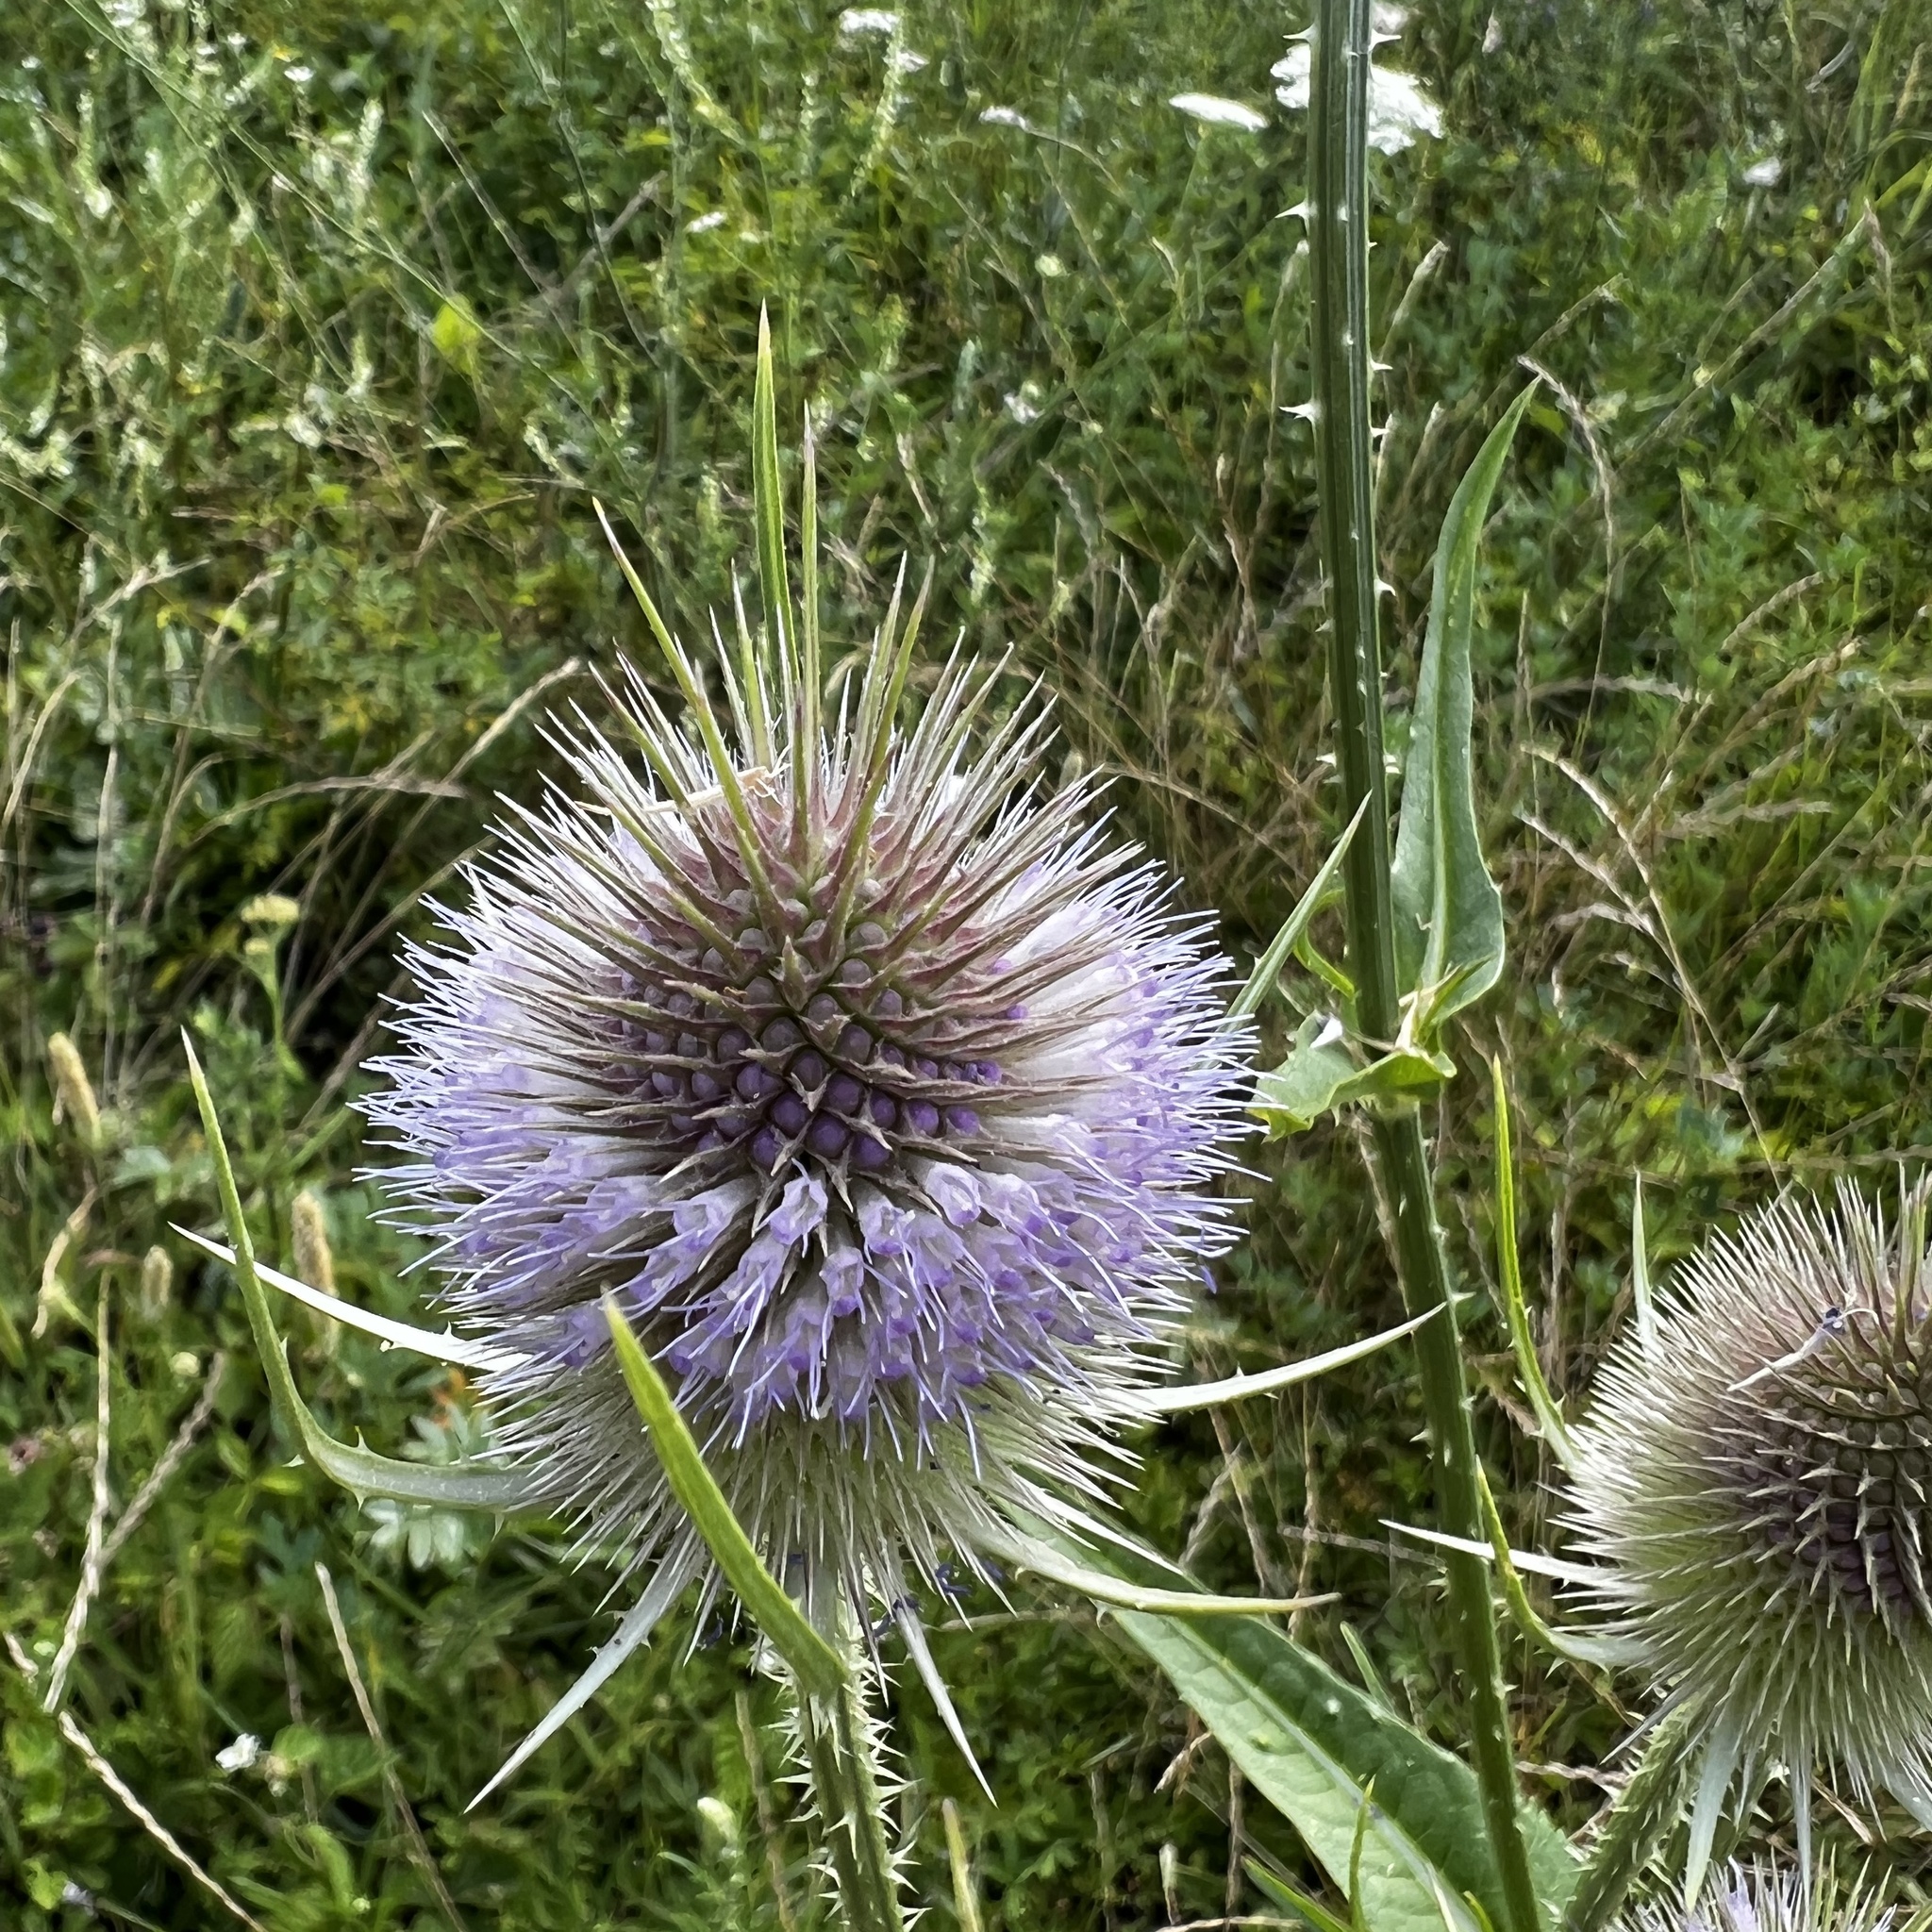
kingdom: Plantae
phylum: Tracheophyta
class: Magnoliopsida
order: Dipsacales
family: Caprifoliaceae
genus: Dipsacus
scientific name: Dipsacus fullonum
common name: Teasel
